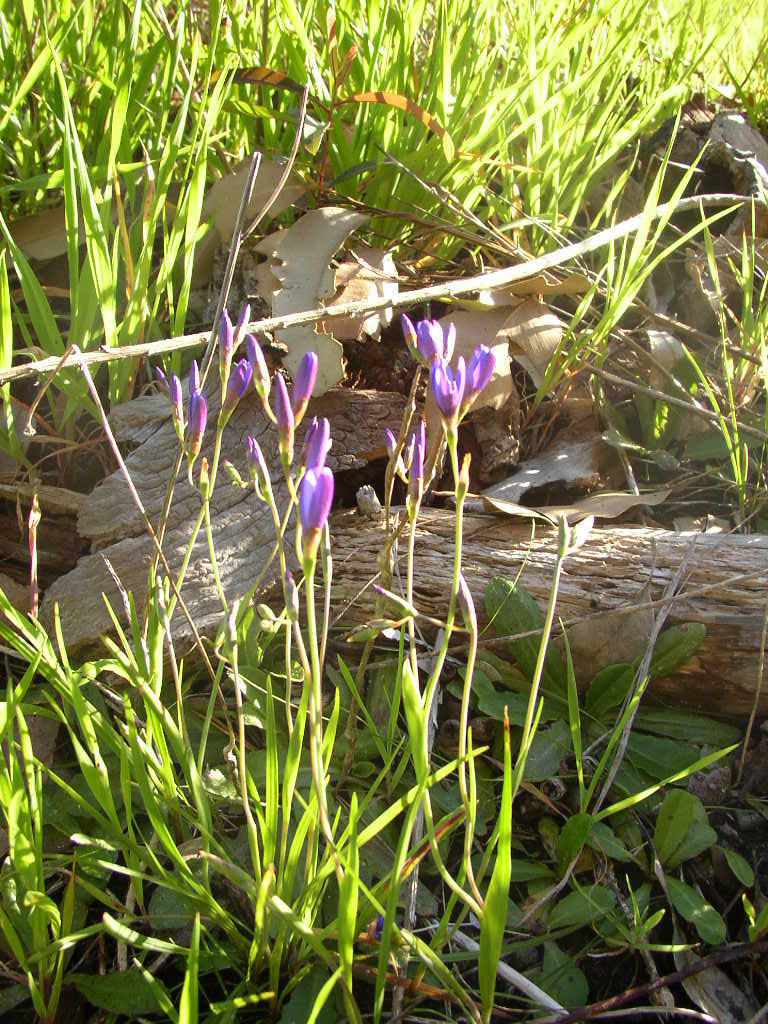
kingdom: Plantae
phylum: Tracheophyta
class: Liliopsida
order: Asparagales
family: Iridaceae
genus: Geissorhiza
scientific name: Geissorhiza aspera
